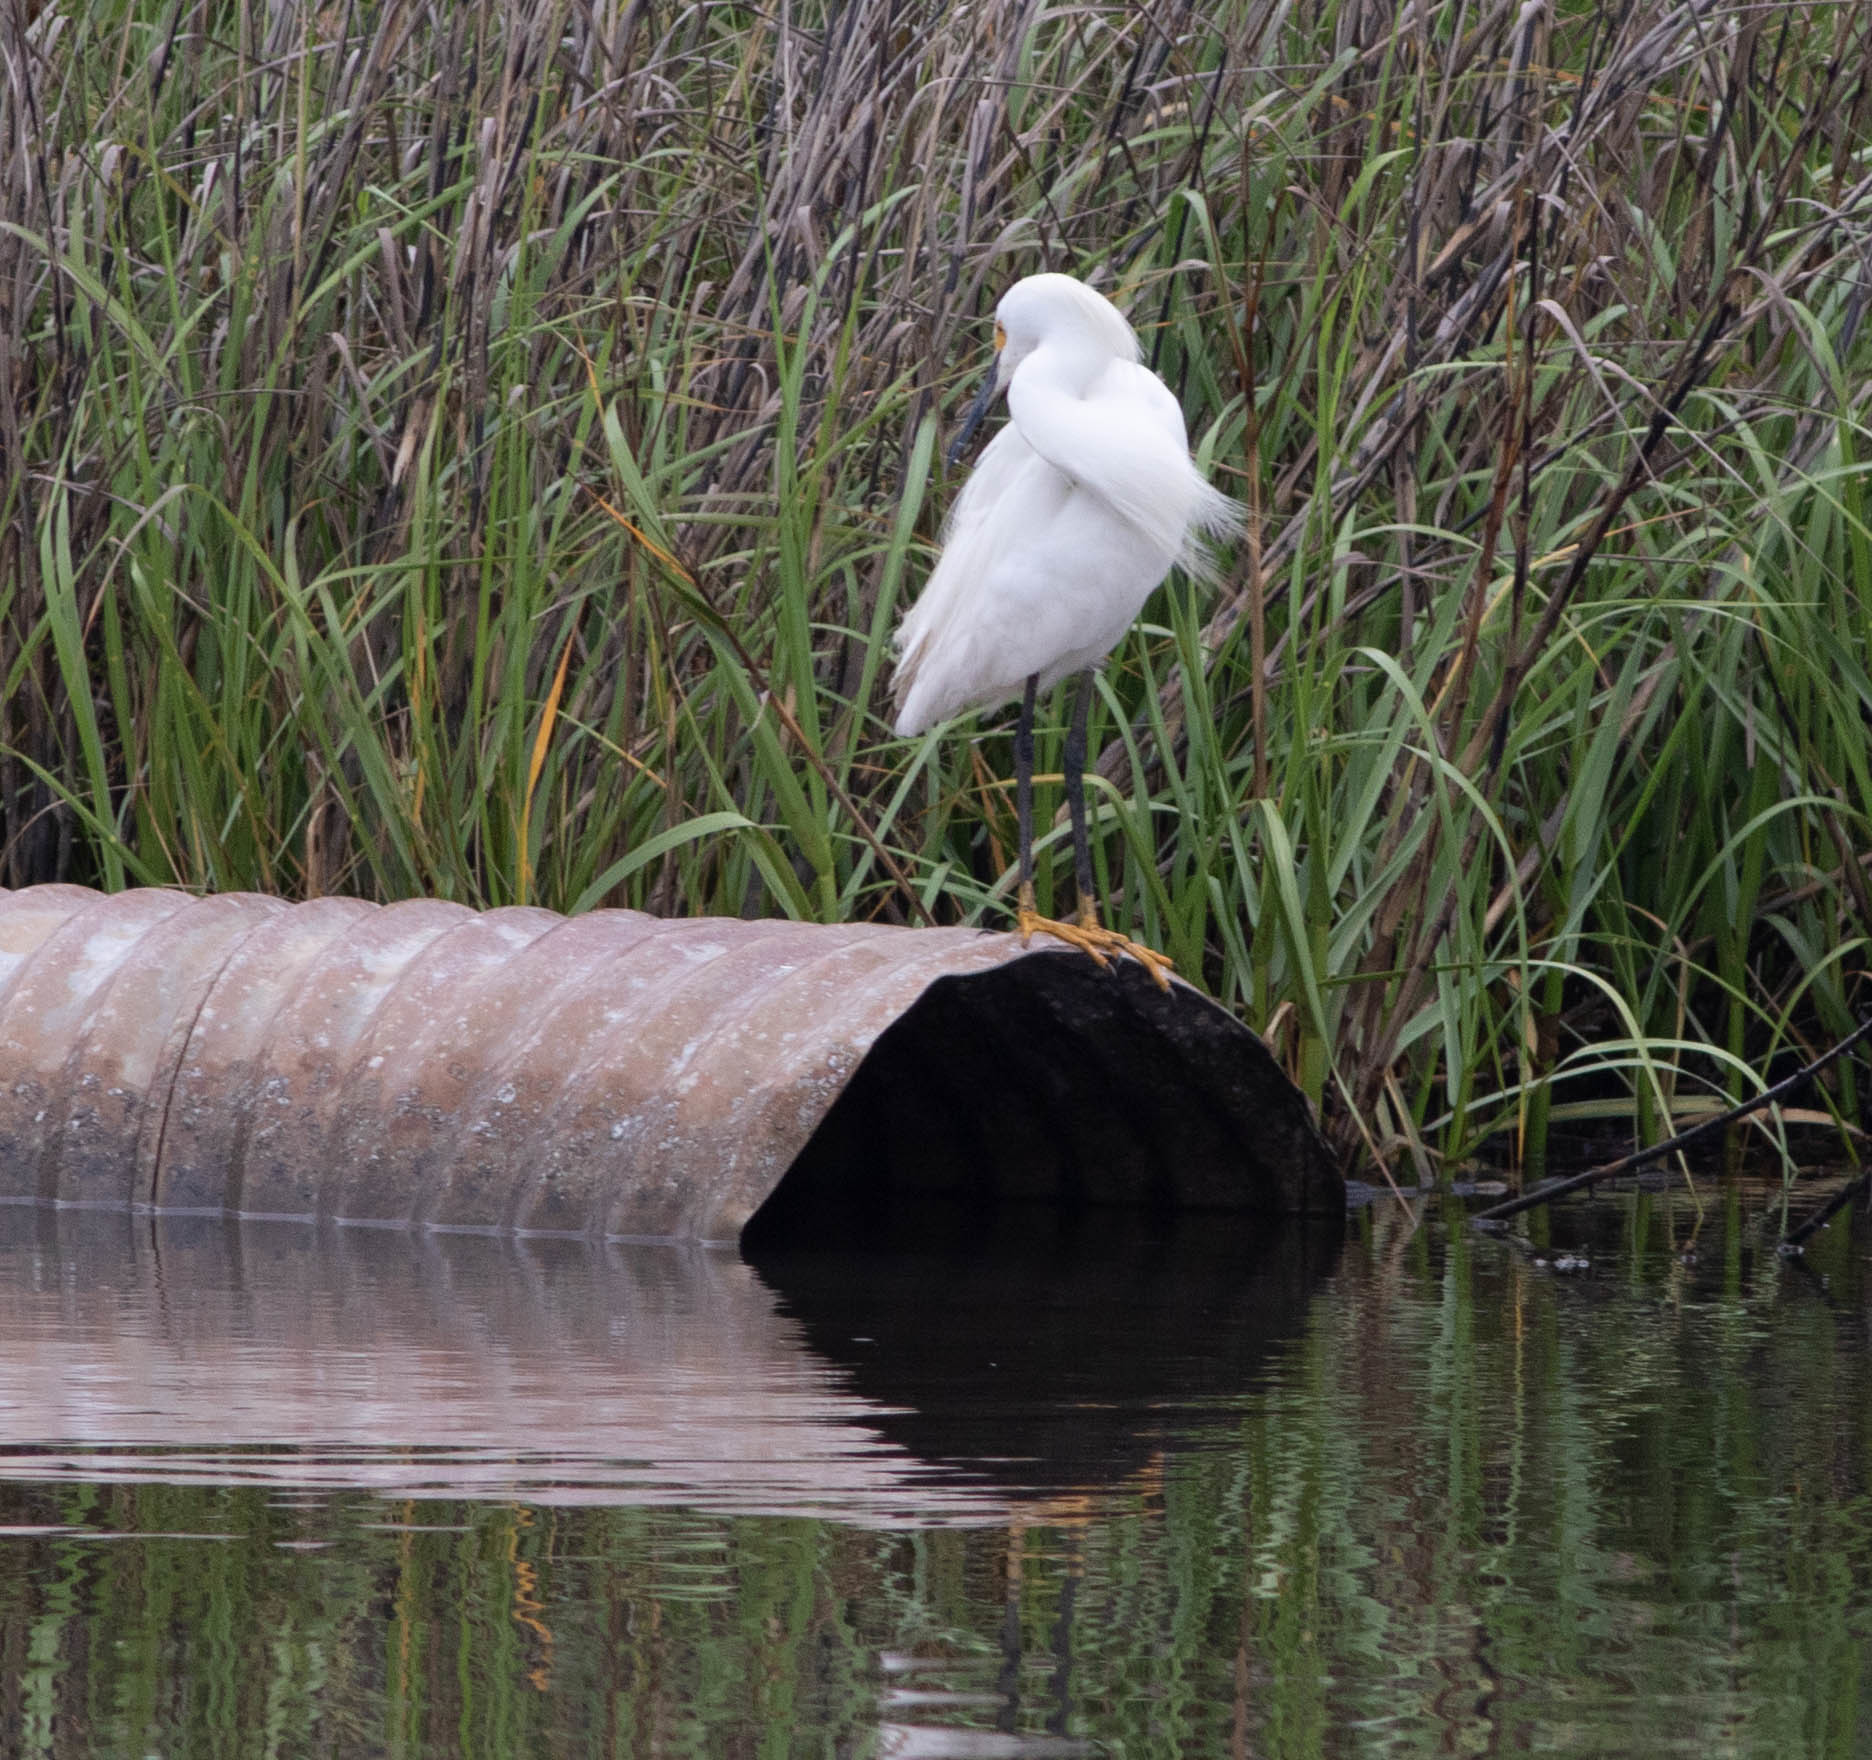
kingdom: Animalia
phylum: Chordata
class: Aves
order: Pelecaniformes
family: Ardeidae
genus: Egretta
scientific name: Egretta thula
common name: Snowy egret
